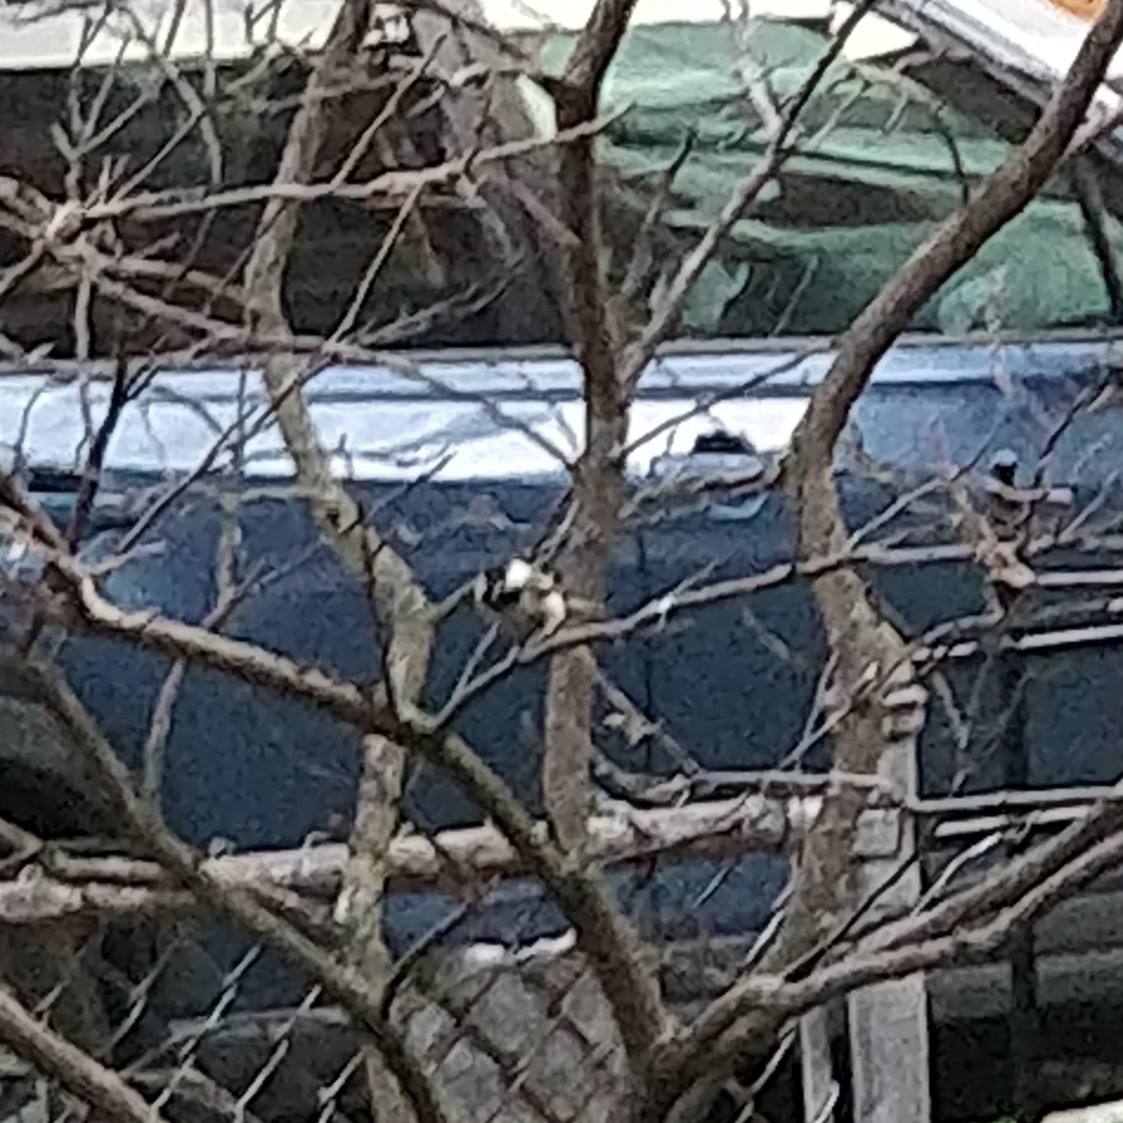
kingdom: Animalia
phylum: Chordata
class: Aves
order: Passeriformes
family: Paridae
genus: Poecile
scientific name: Poecile atricapillus
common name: Black-capped chickadee
